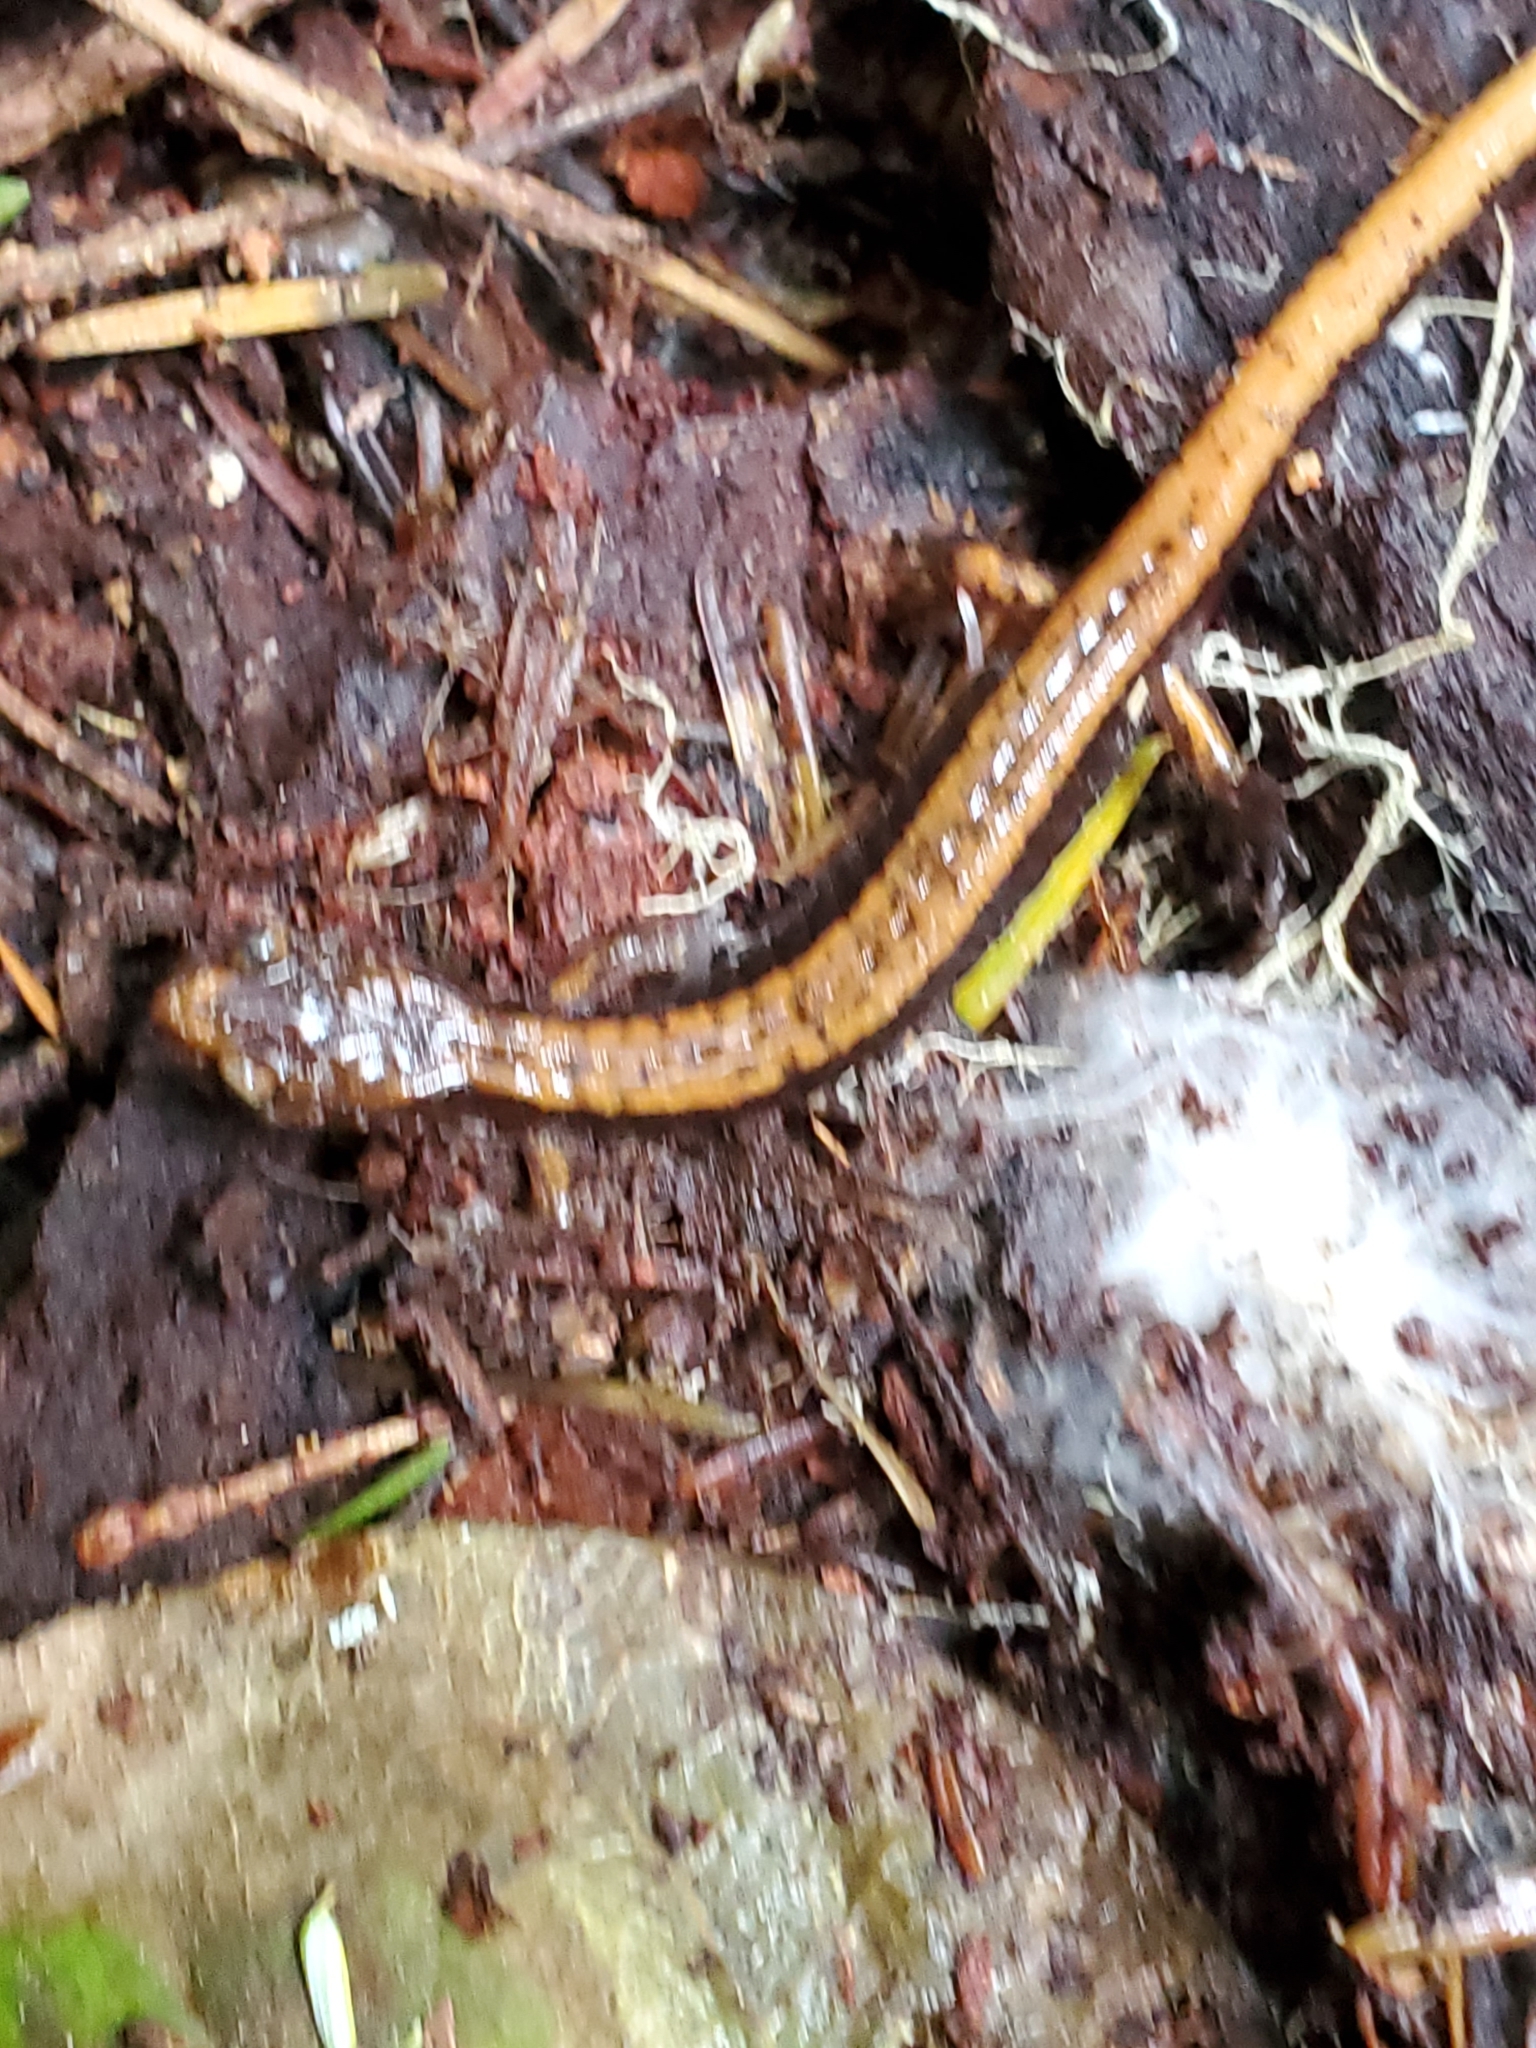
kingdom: Animalia
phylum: Chordata
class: Amphibia
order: Caudata
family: Plethodontidae
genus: Plethodon
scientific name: Plethodon vehiculum
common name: Western red-backed salamander
